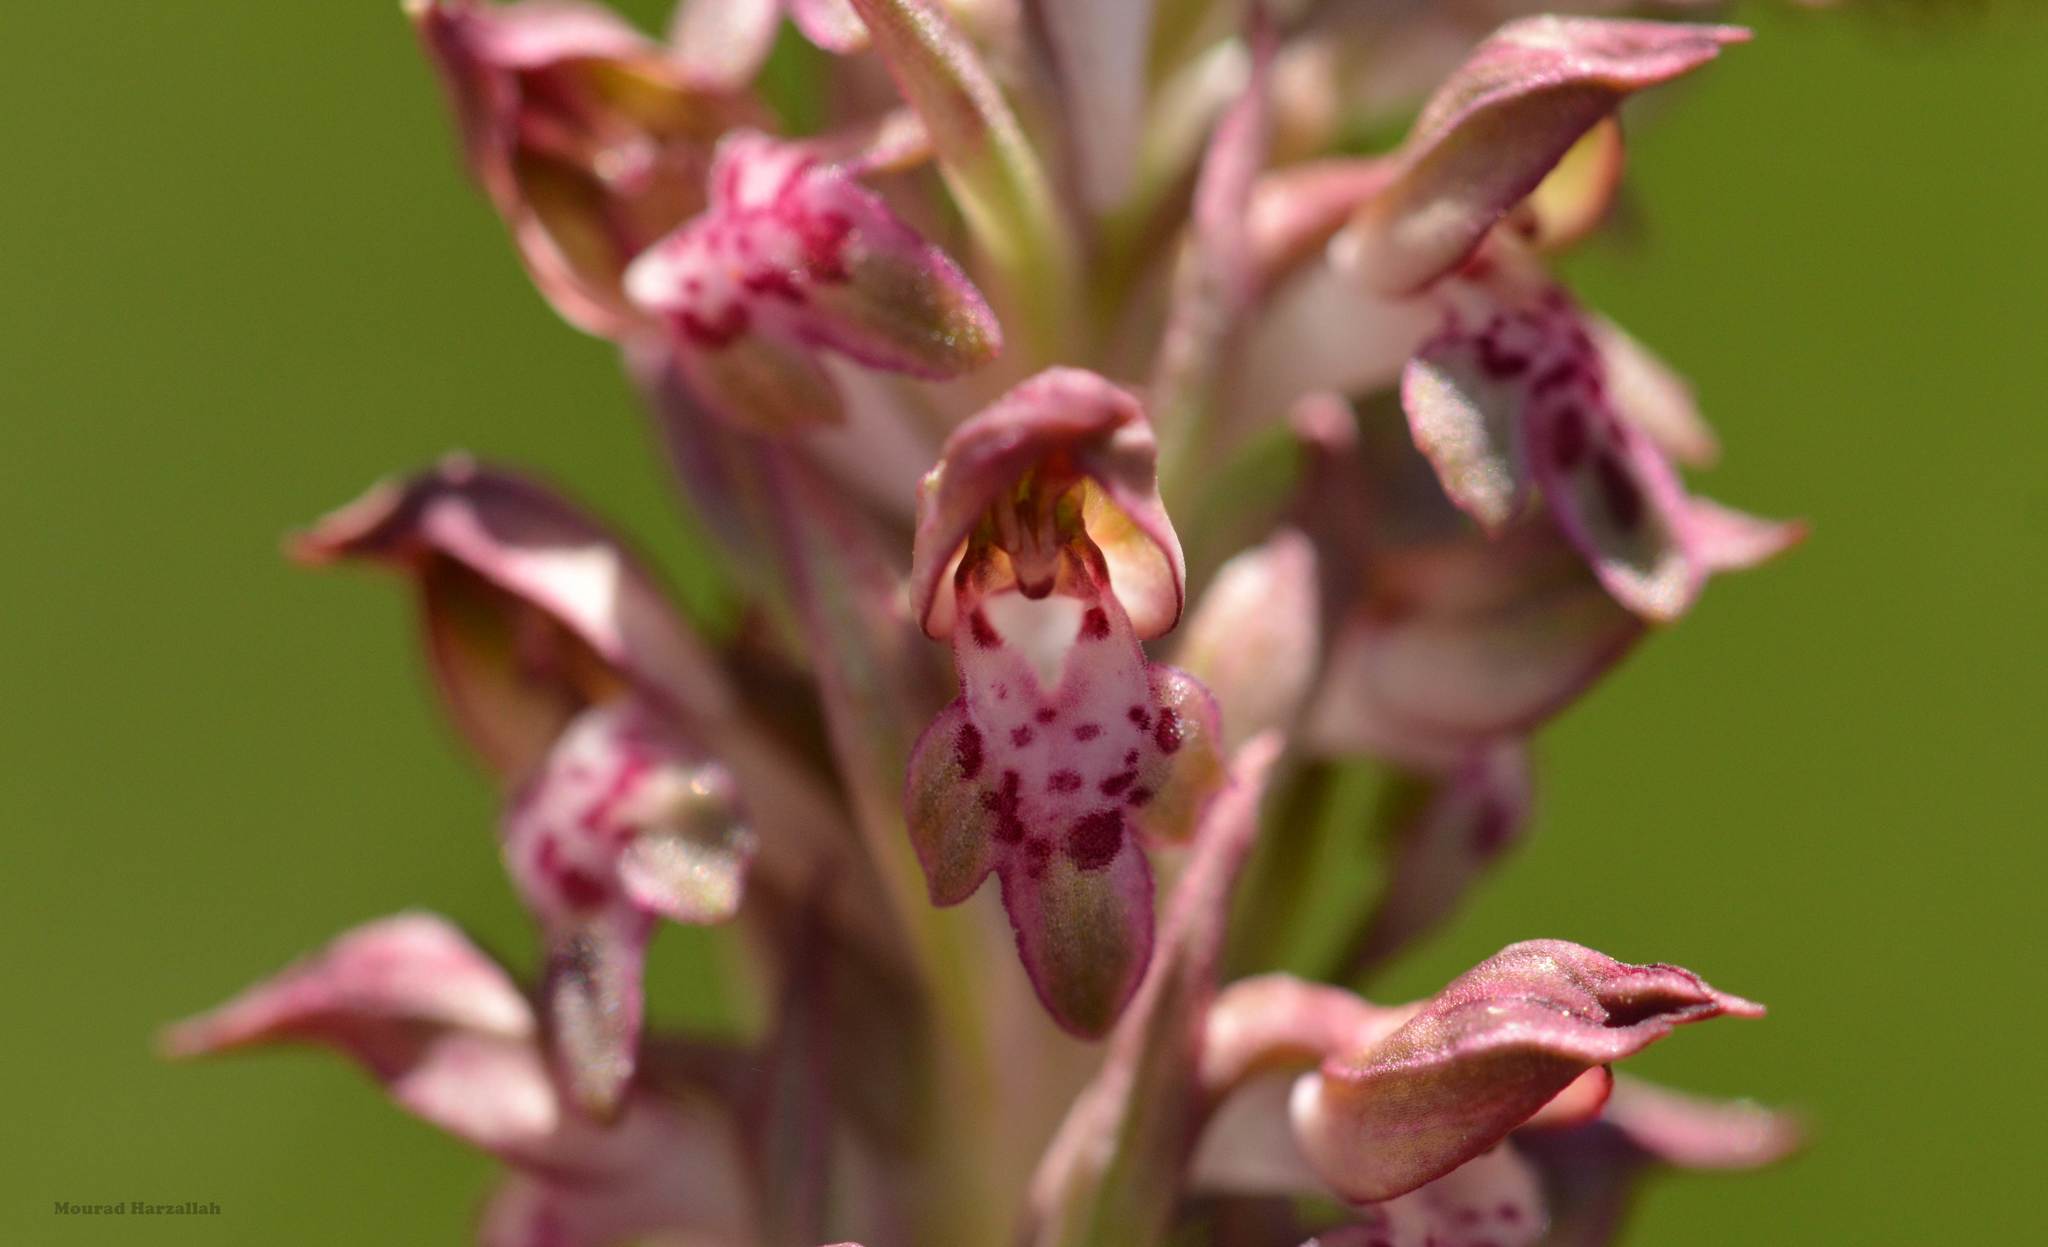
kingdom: Plantae
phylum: Tracheophyta
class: Liliopsida
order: Asparagales
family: Orchidaceae
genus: Anacamptis
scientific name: Anacamptis coriophora
